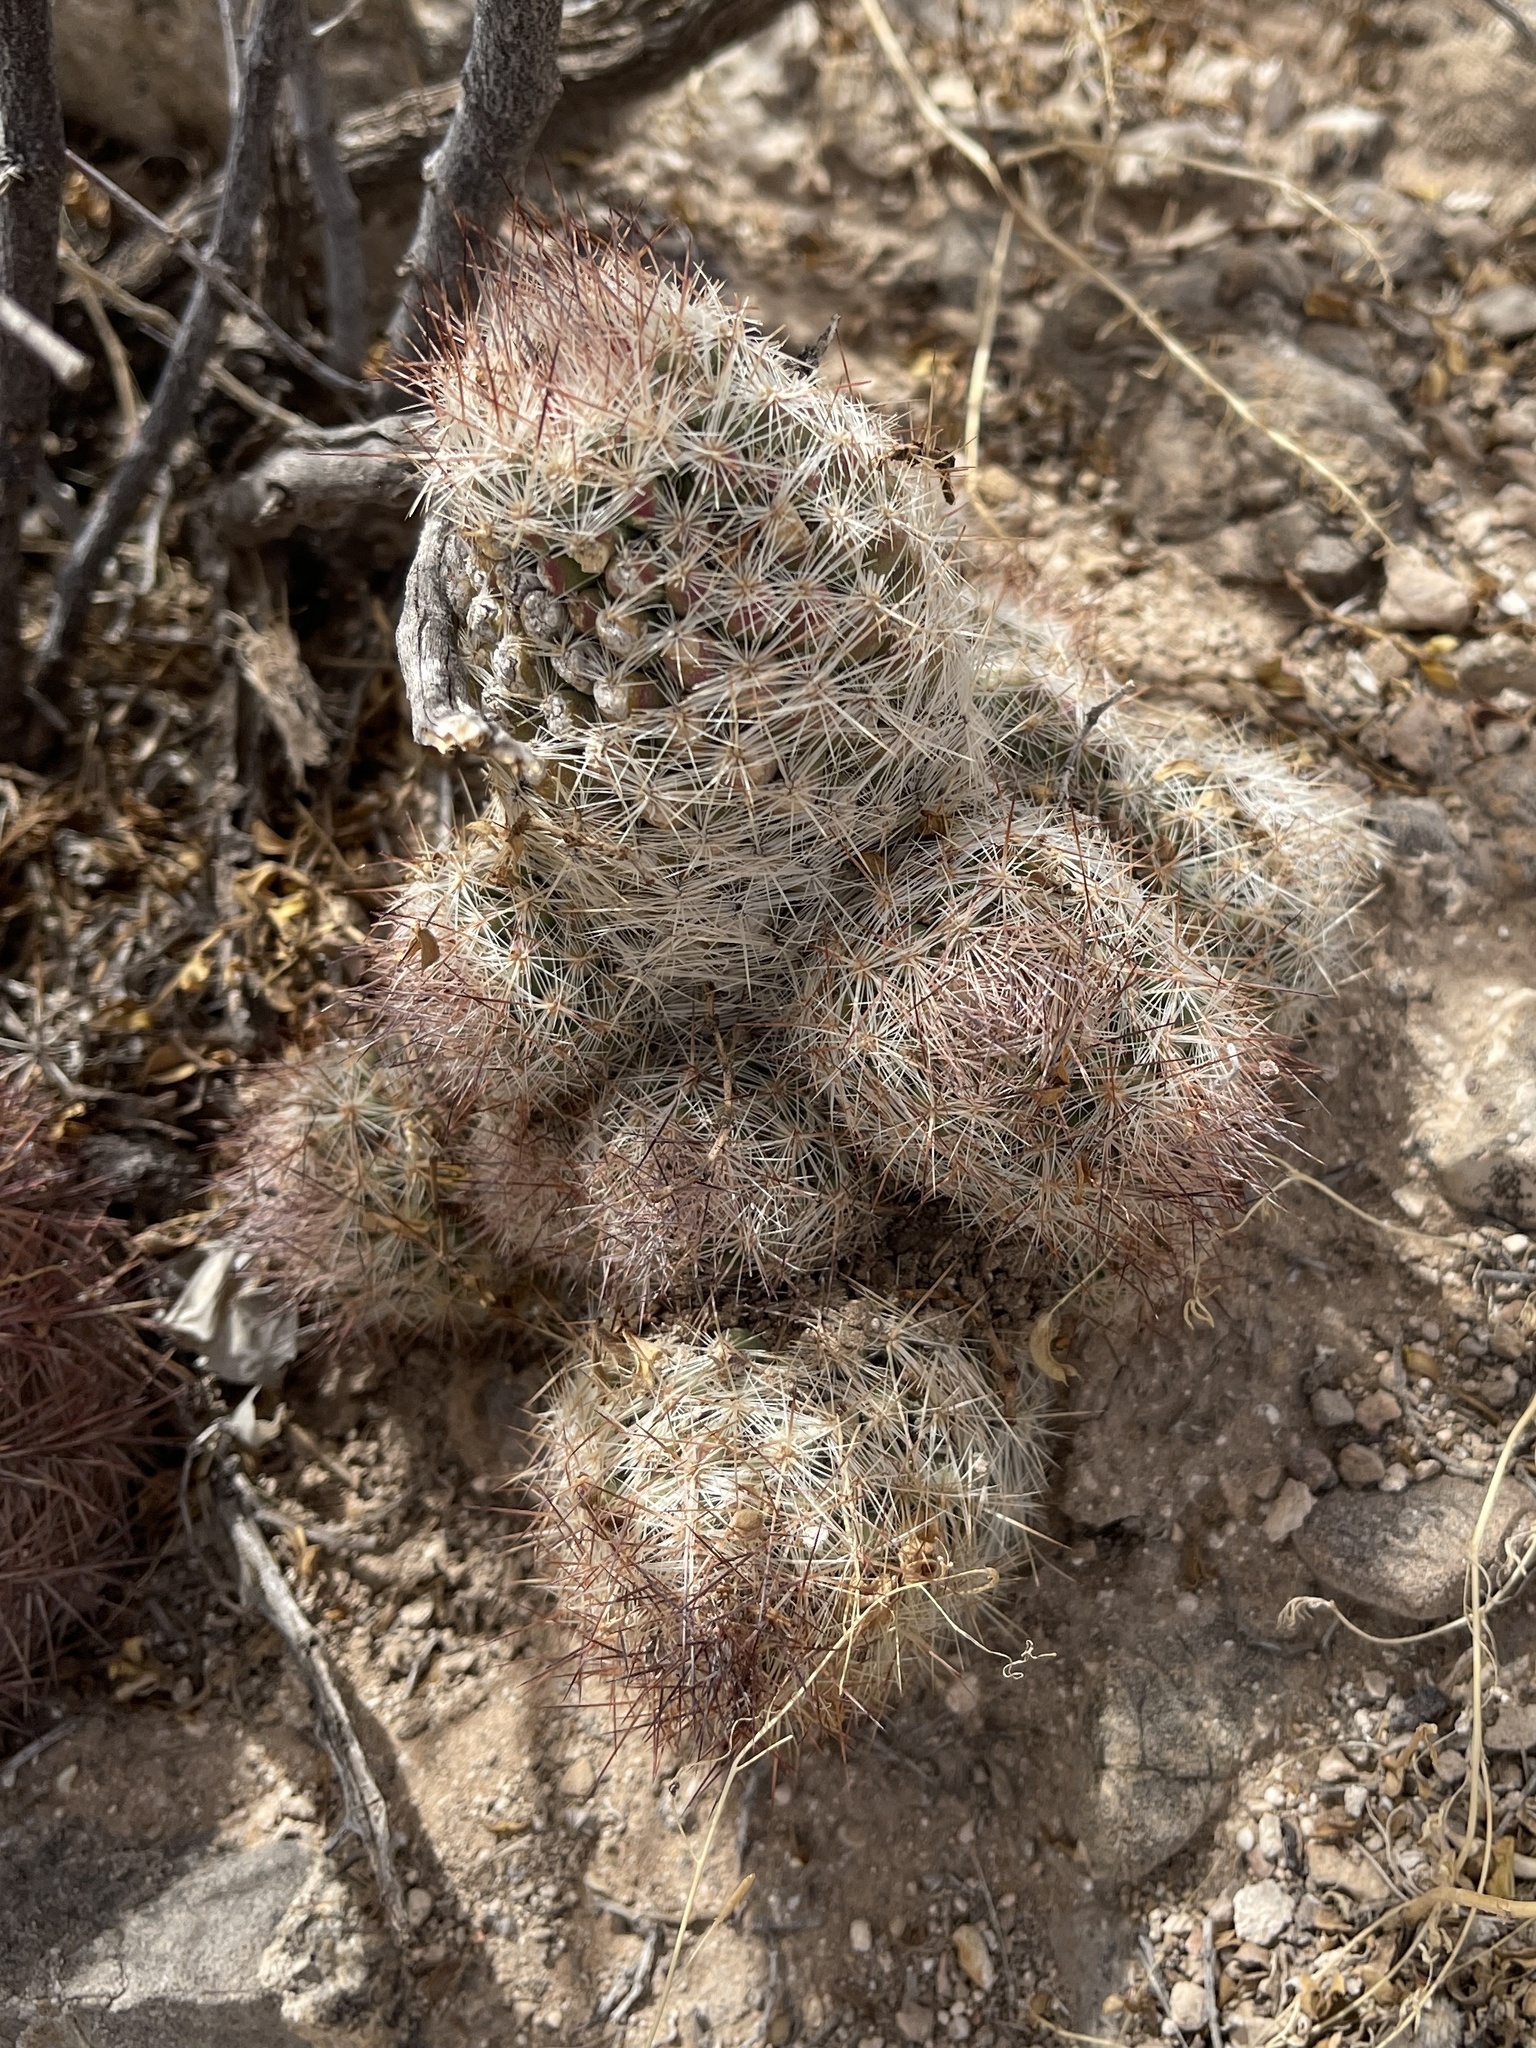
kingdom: Plantae
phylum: Tracheophyta
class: Magnoliopsida
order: Caryophyllales
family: Cactaceae
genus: Pelecyphora
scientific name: Pelecyphora tuberculosa
